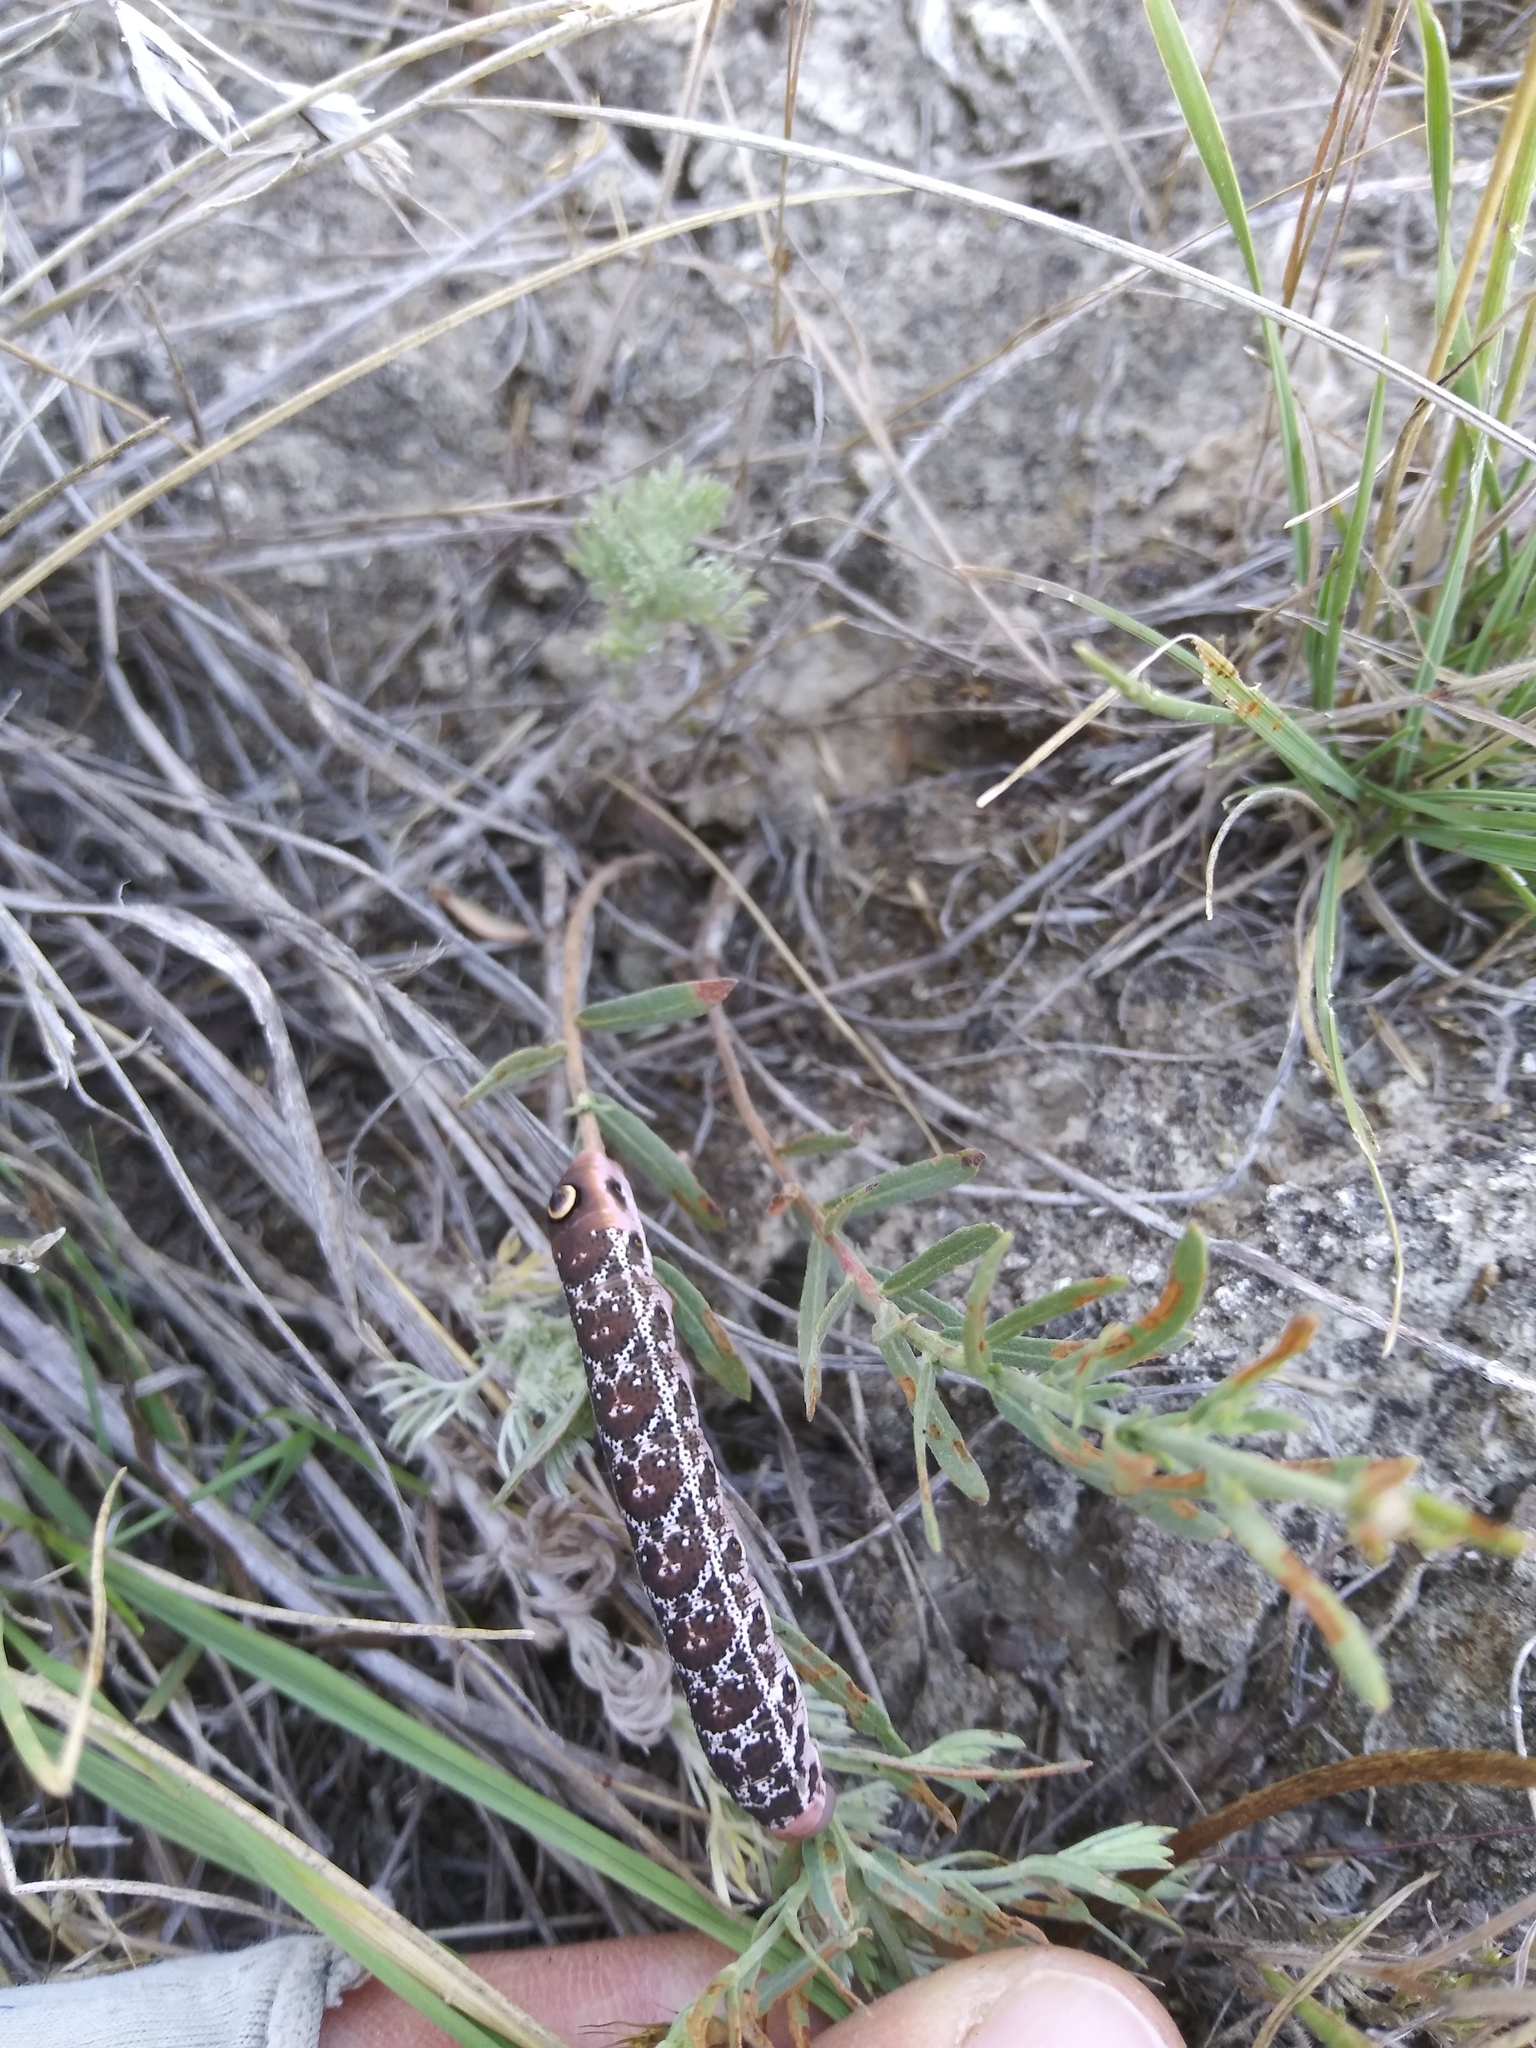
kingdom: Animalia
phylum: Arthropoda
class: Insecta
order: Lepidoptera
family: Sphingidae
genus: Proserpinus
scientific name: Proserpinus juanita
